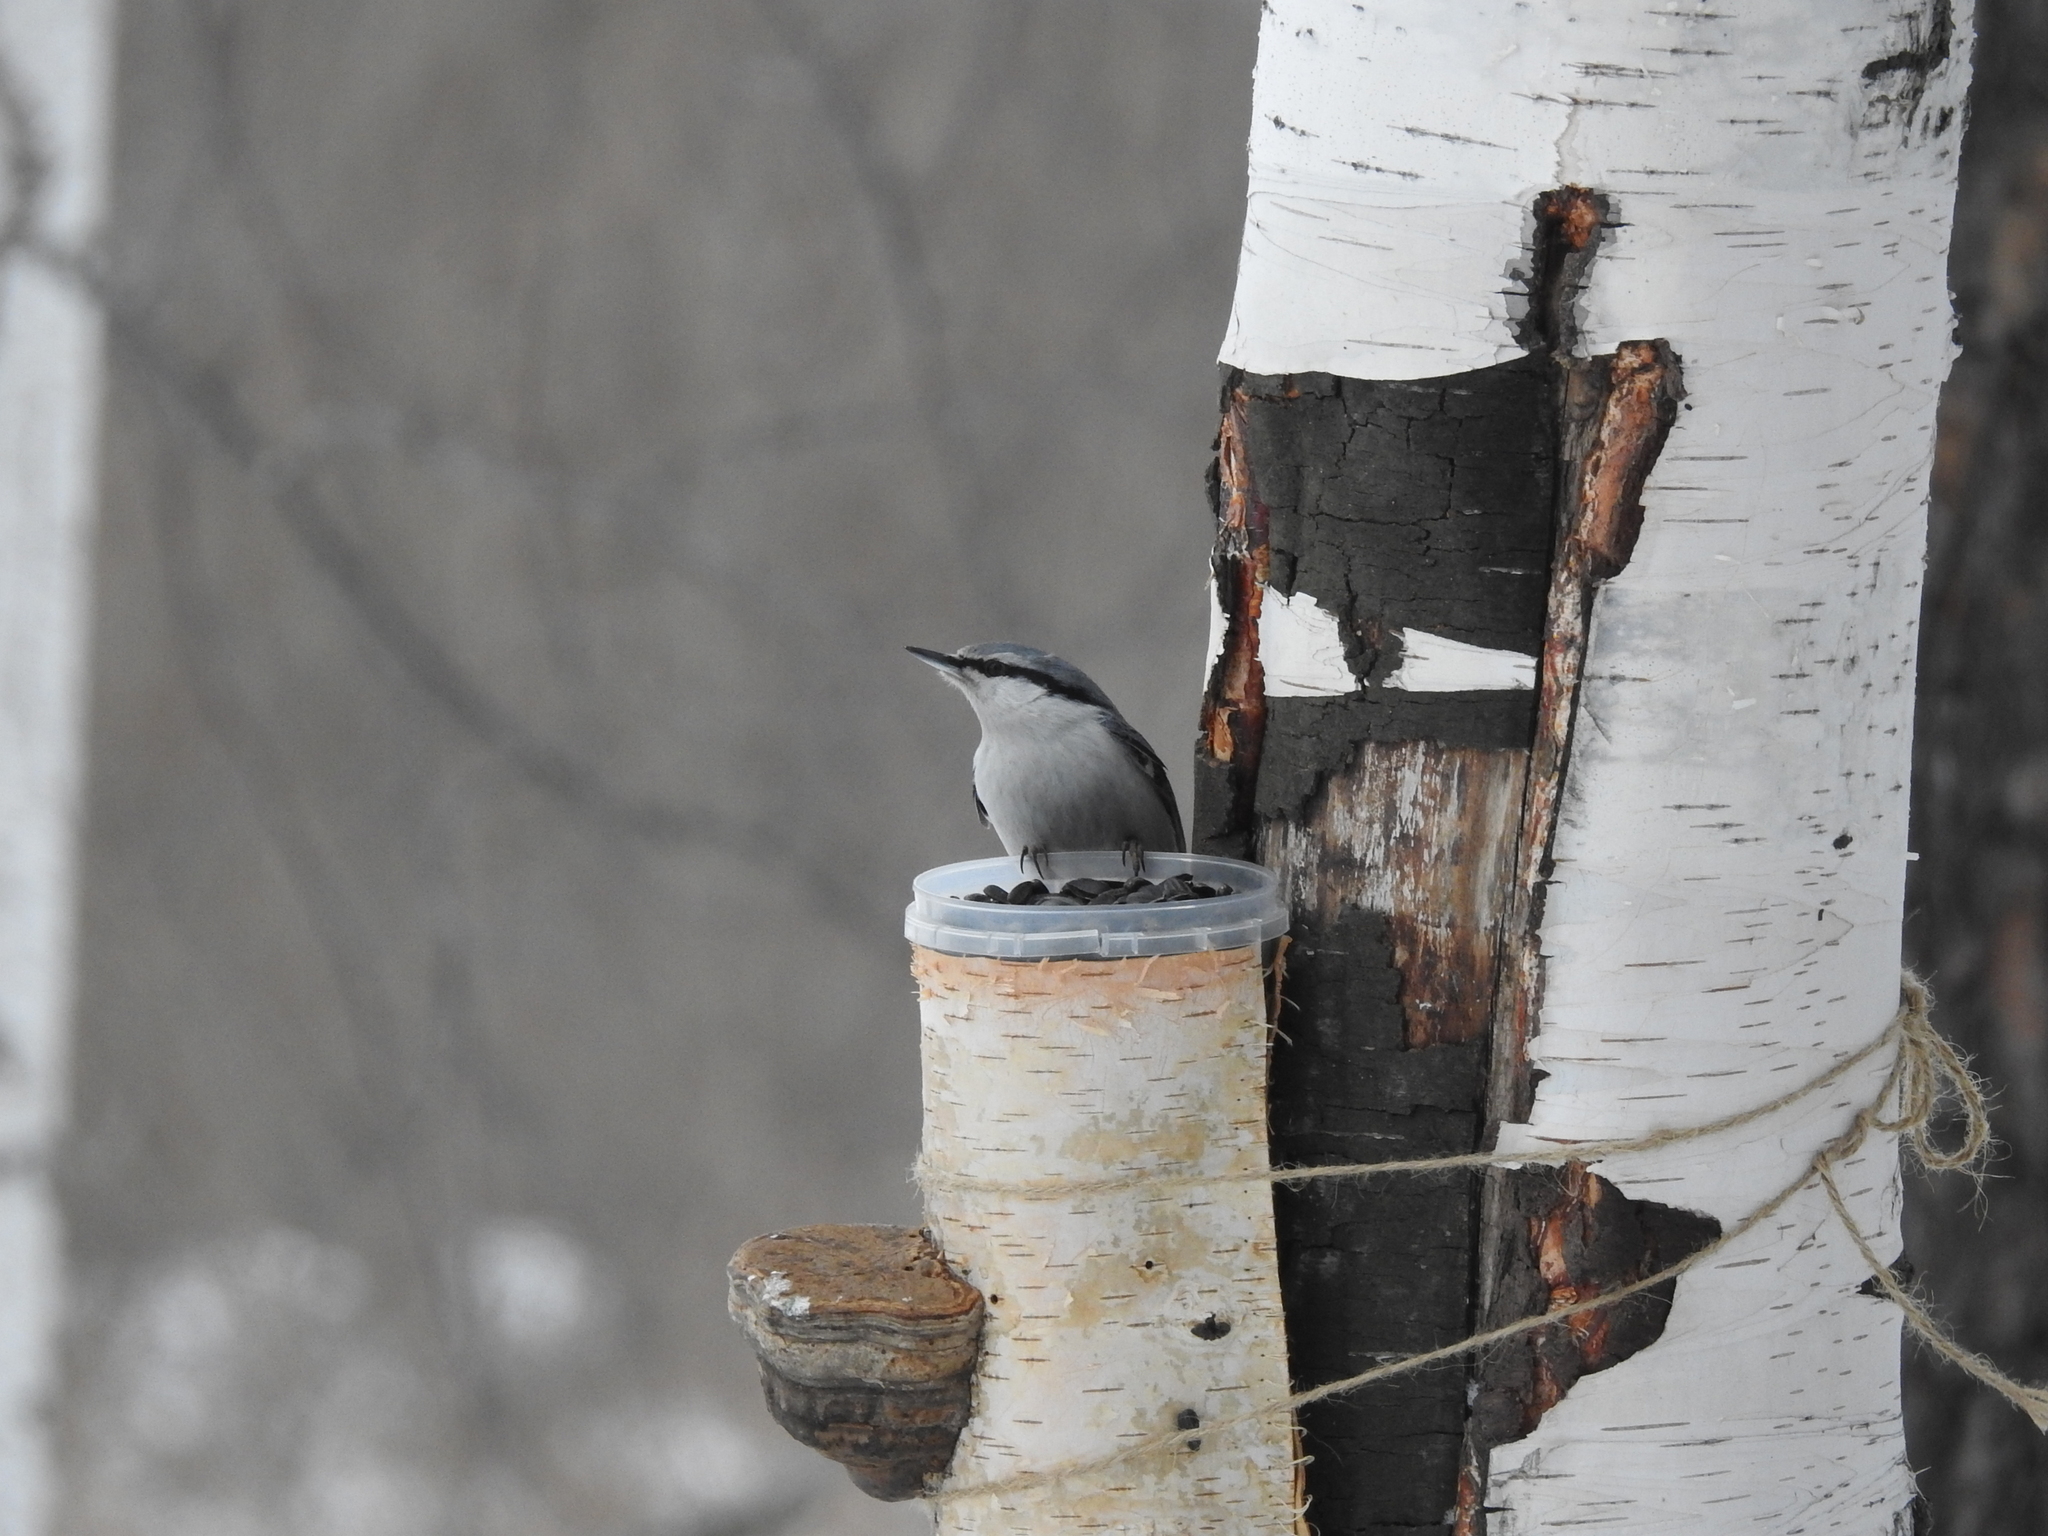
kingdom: Animalia
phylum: Chordata
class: Aves
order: Passeriformes
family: Sittidae
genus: Sitta
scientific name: Sitta europaea
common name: Eurasian nuthatch
